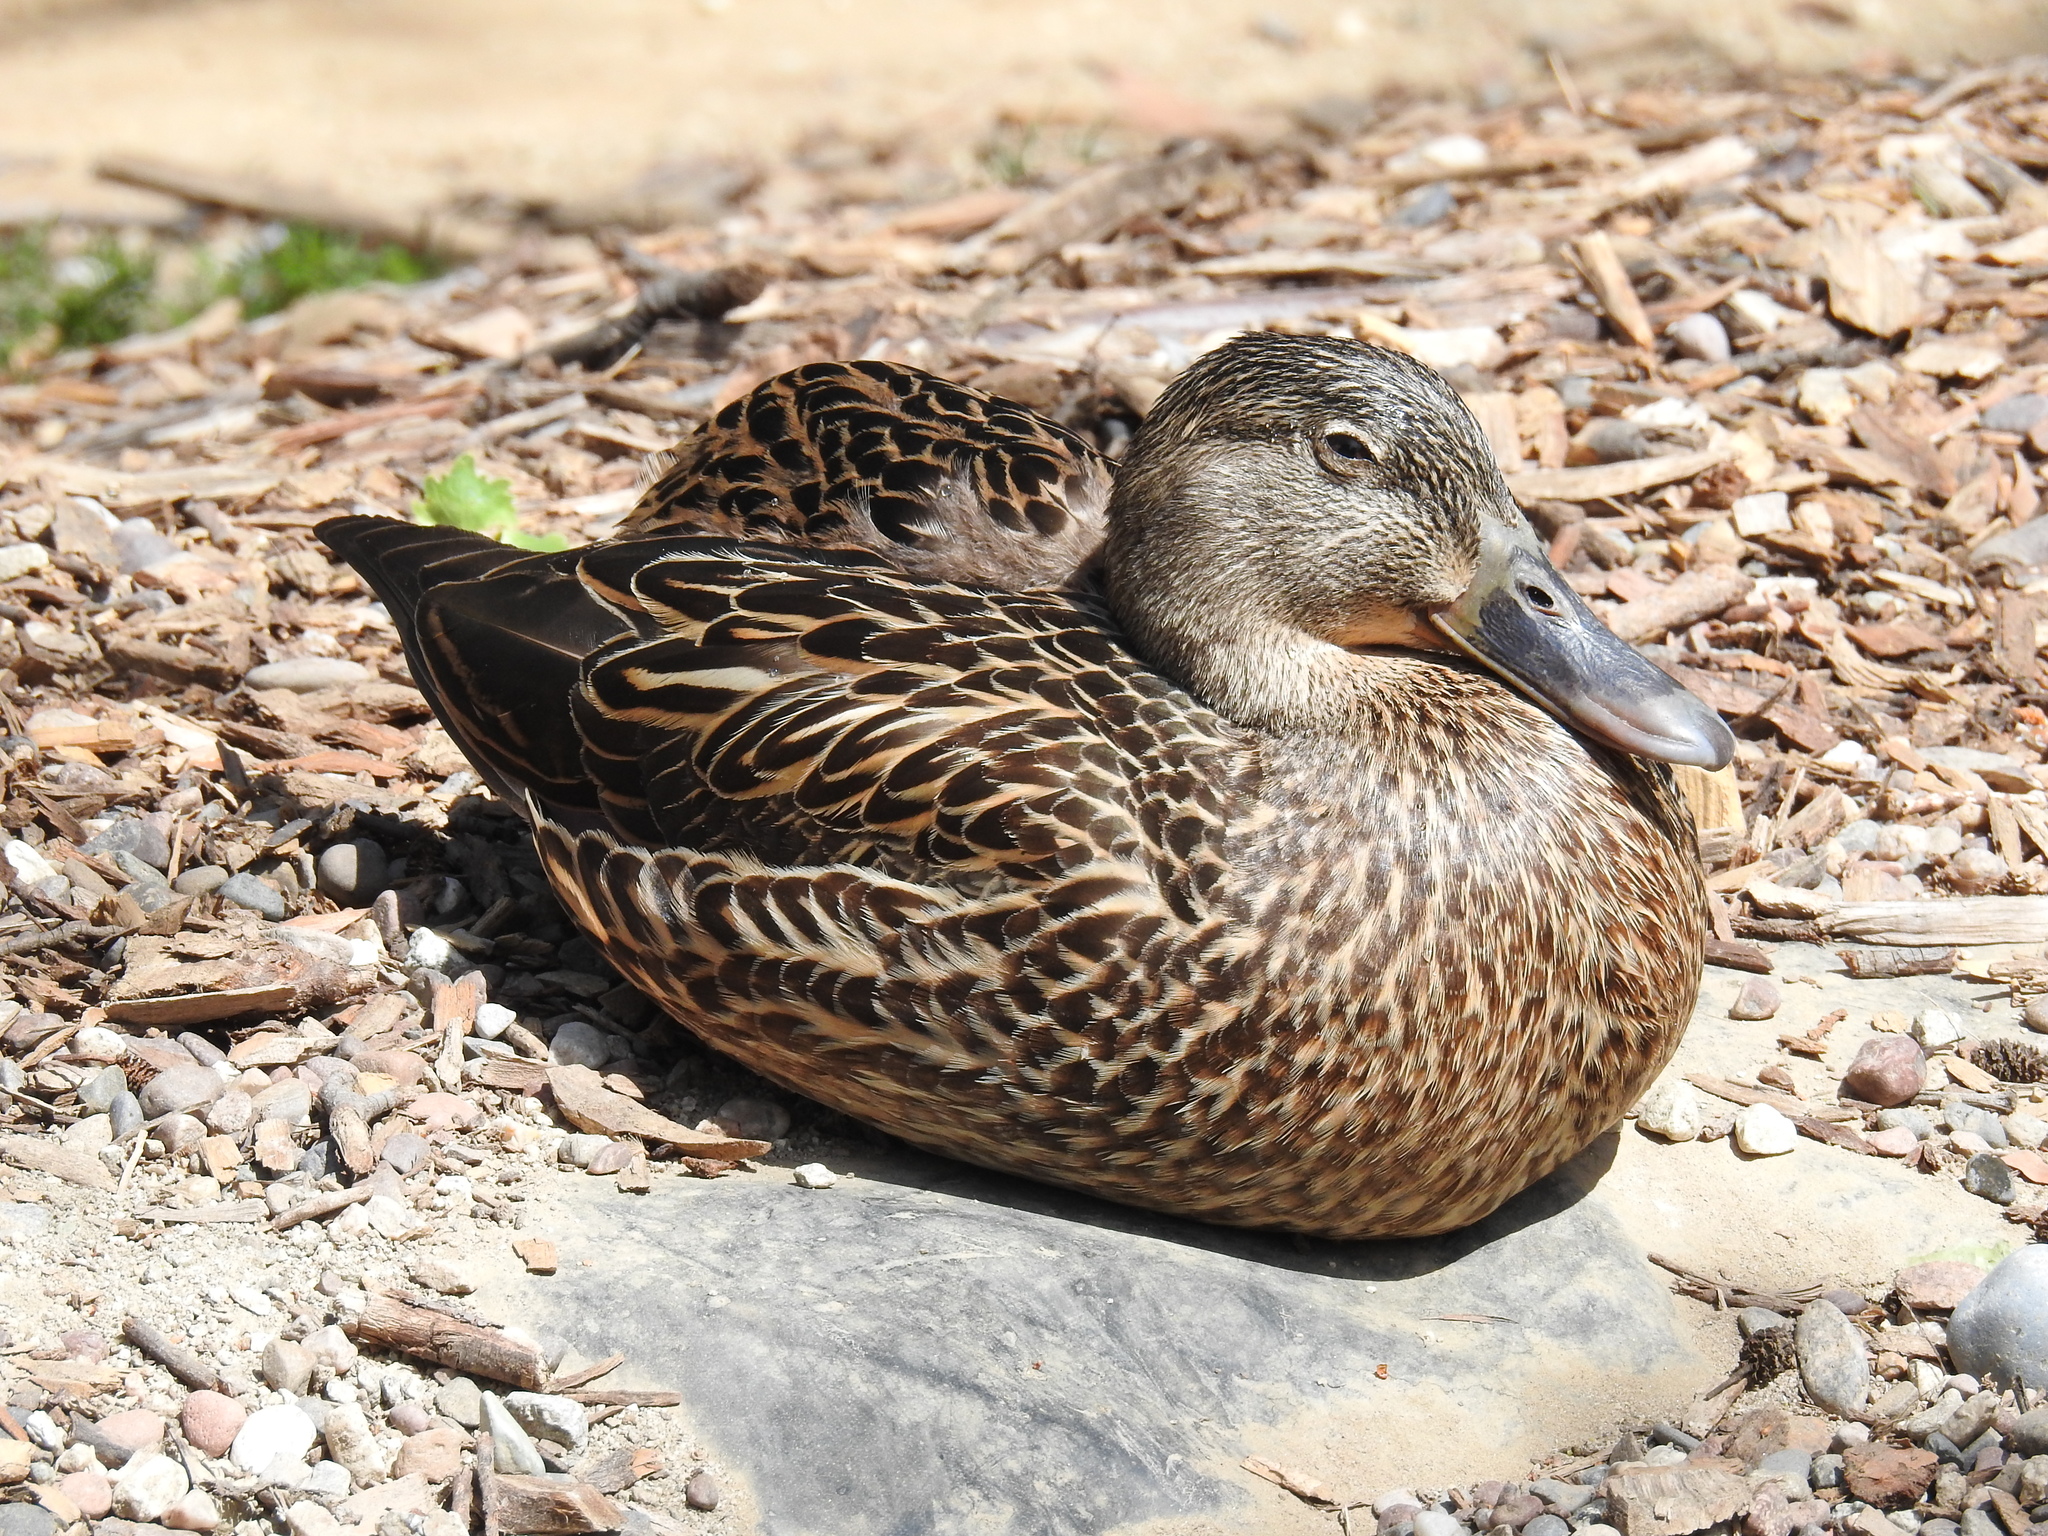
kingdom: Animalia
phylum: Chordata
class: Aves
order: Anseriformes
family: Anatidae
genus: Anas
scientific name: Anas platyrhynchos
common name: Mallard
